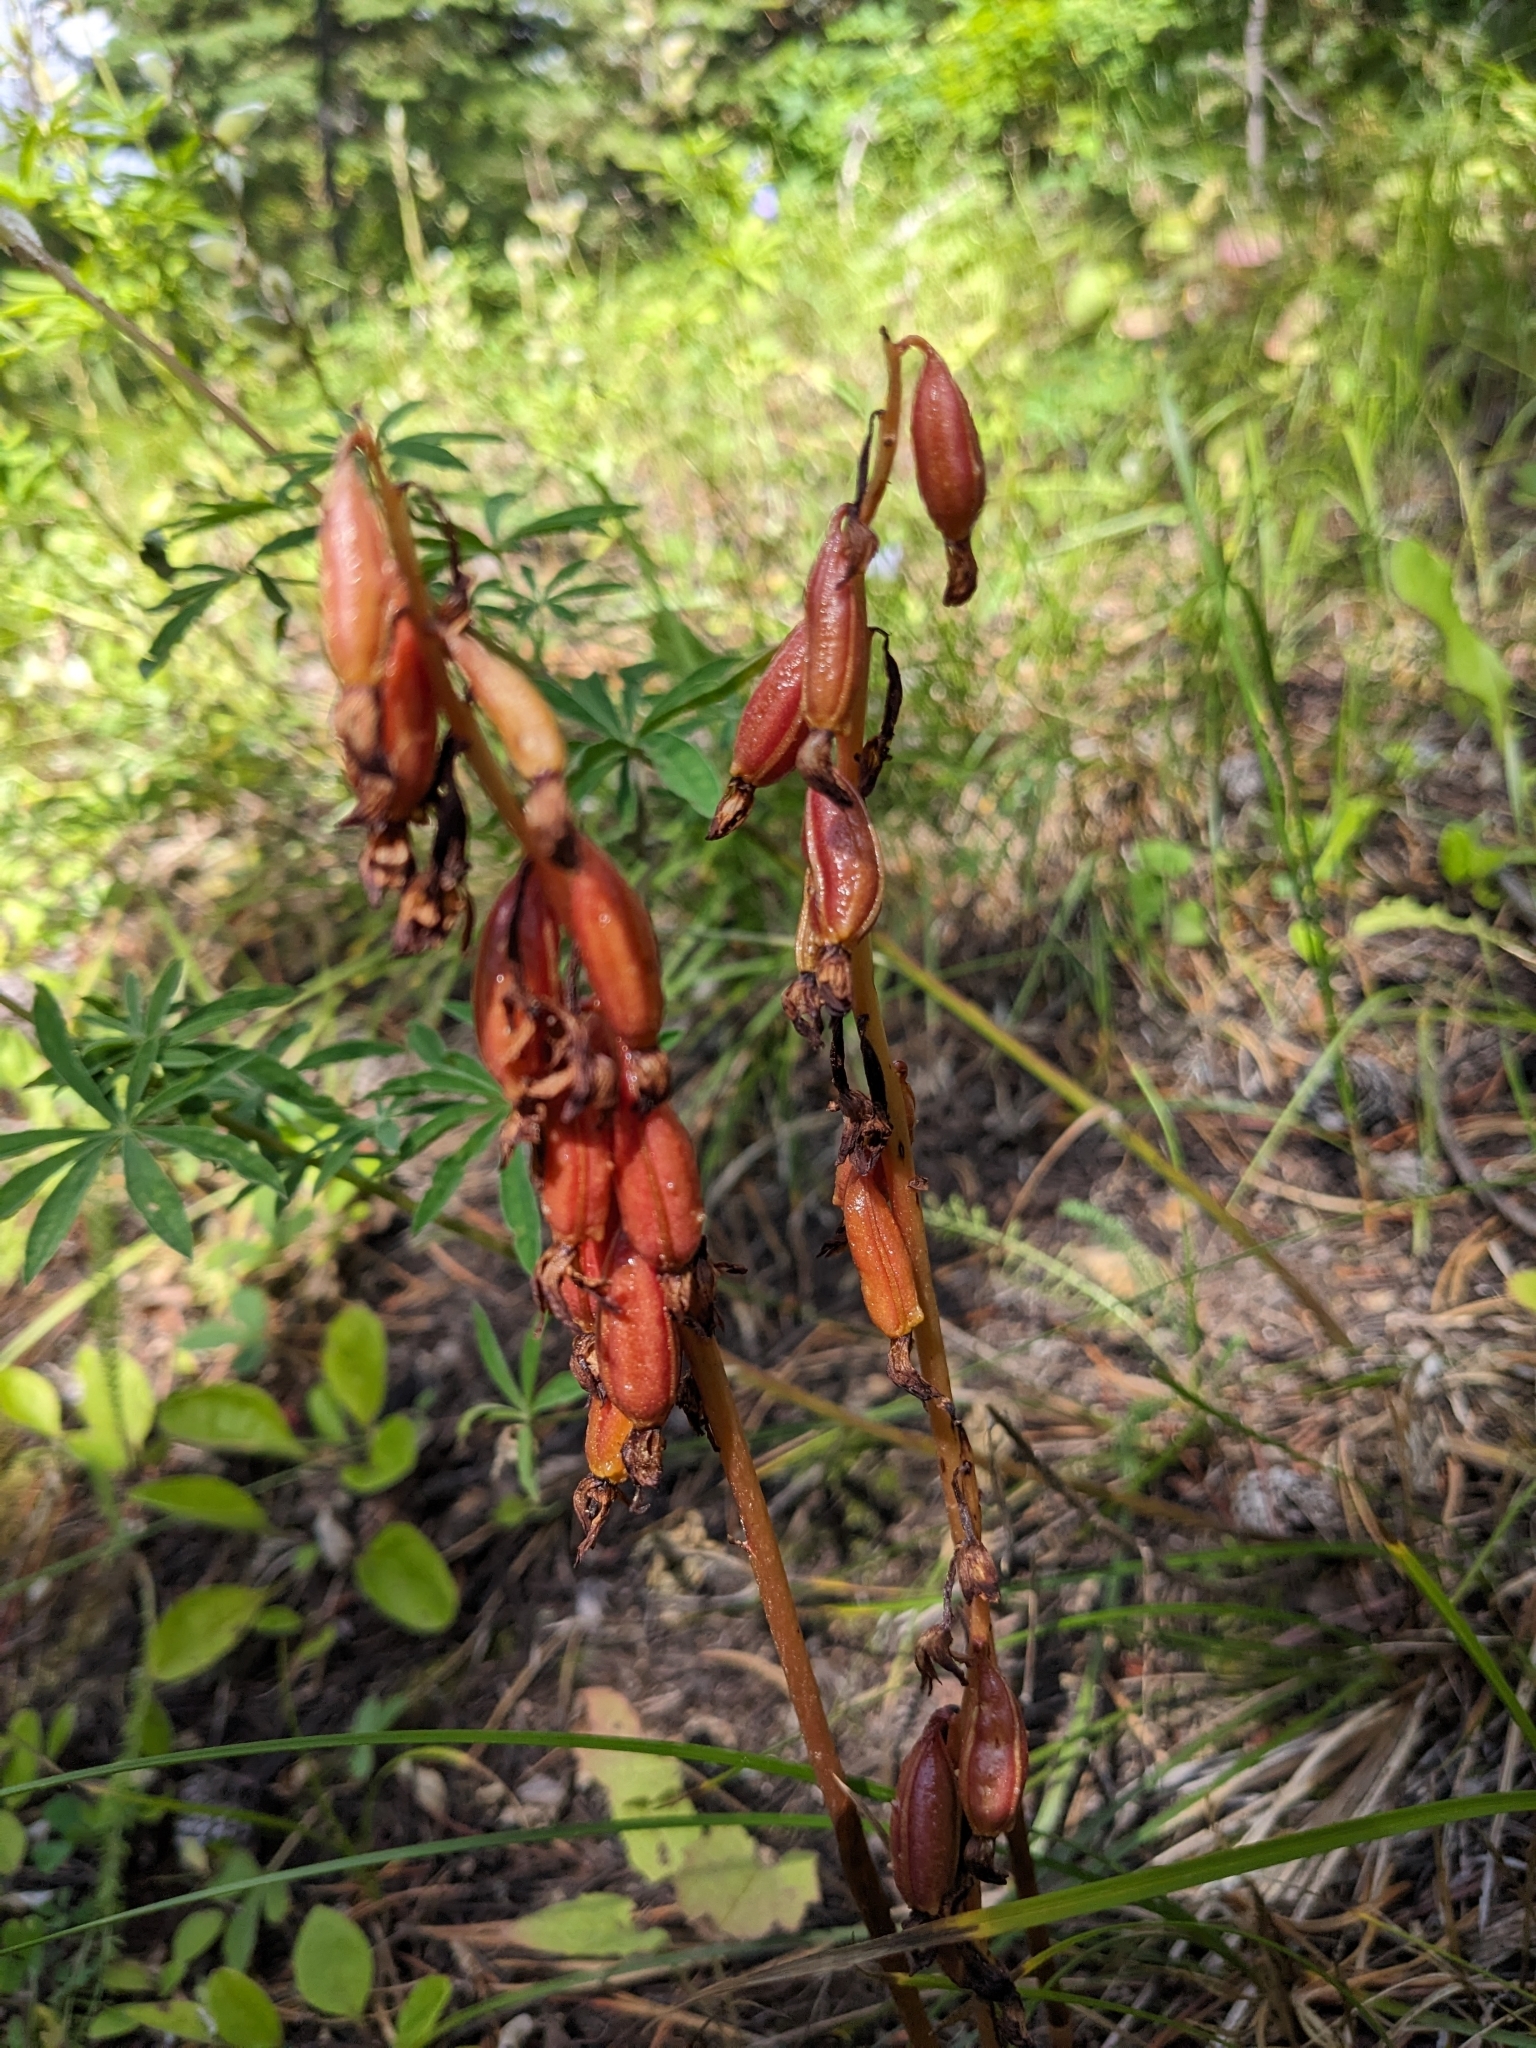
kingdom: Plantae
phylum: Tracheophyta
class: Liliopsida
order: Asparagales
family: Orchidaceae
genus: Corallorhiza
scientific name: Corallorhiza maculata
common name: Spotted coralroot
